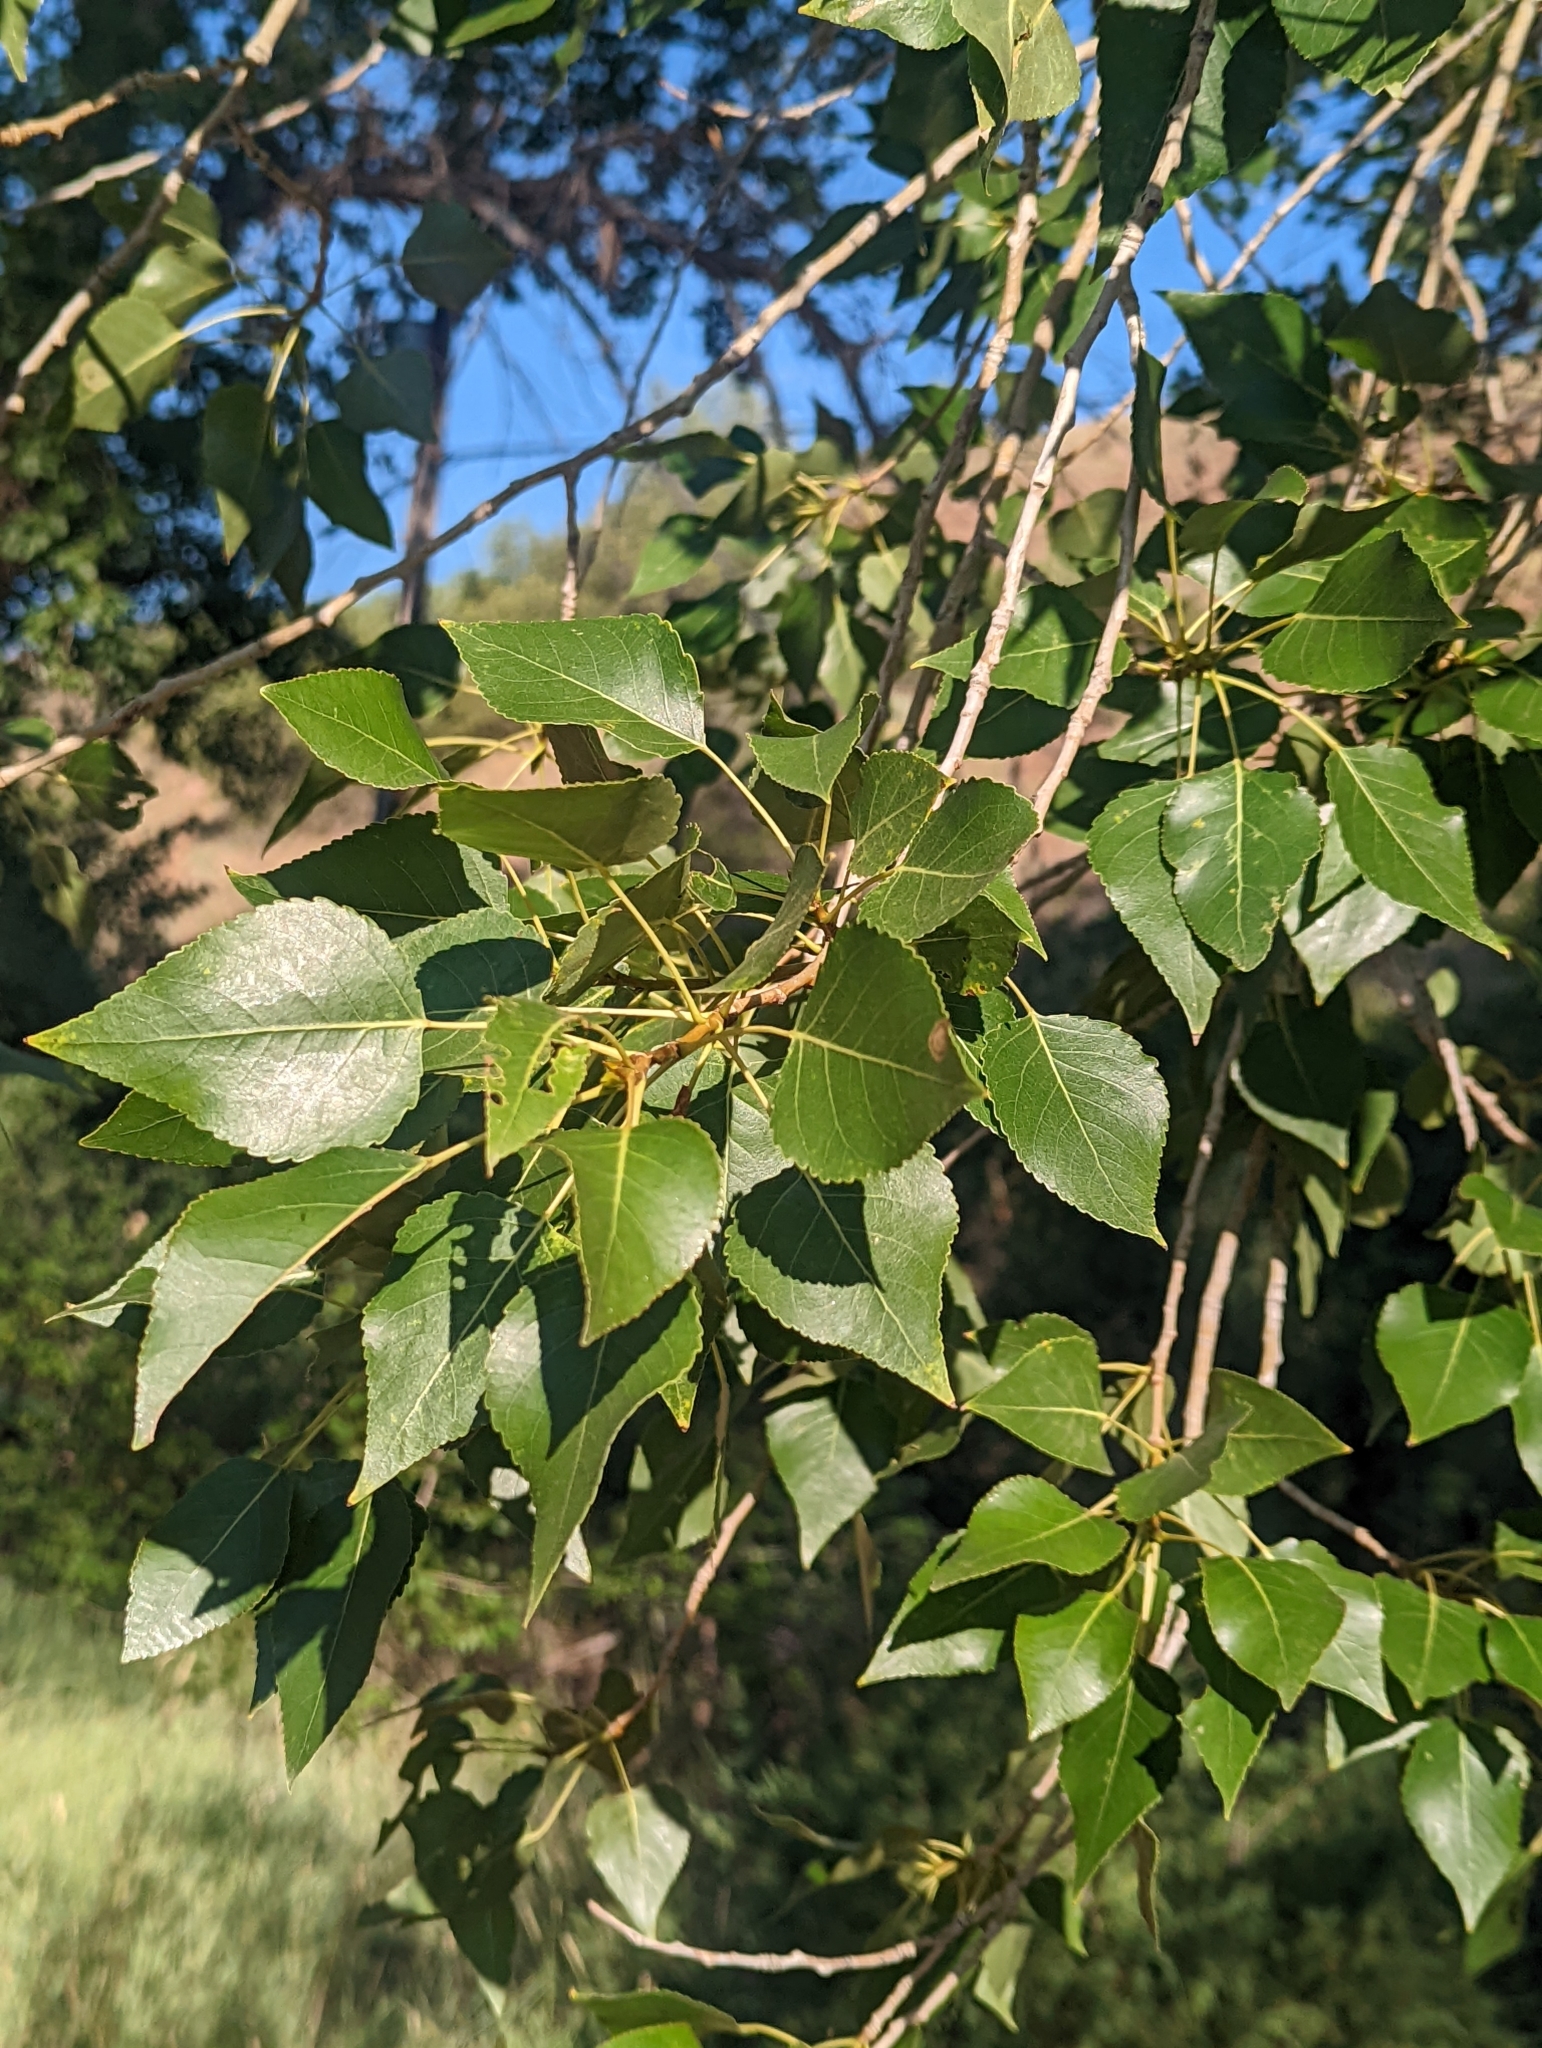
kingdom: Plantae
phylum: Tracheophyta
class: Magnoliopsida
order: Malpighiales
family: Salicaceae
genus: Populus
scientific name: Populus deltoides
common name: Eastern cottonwood
